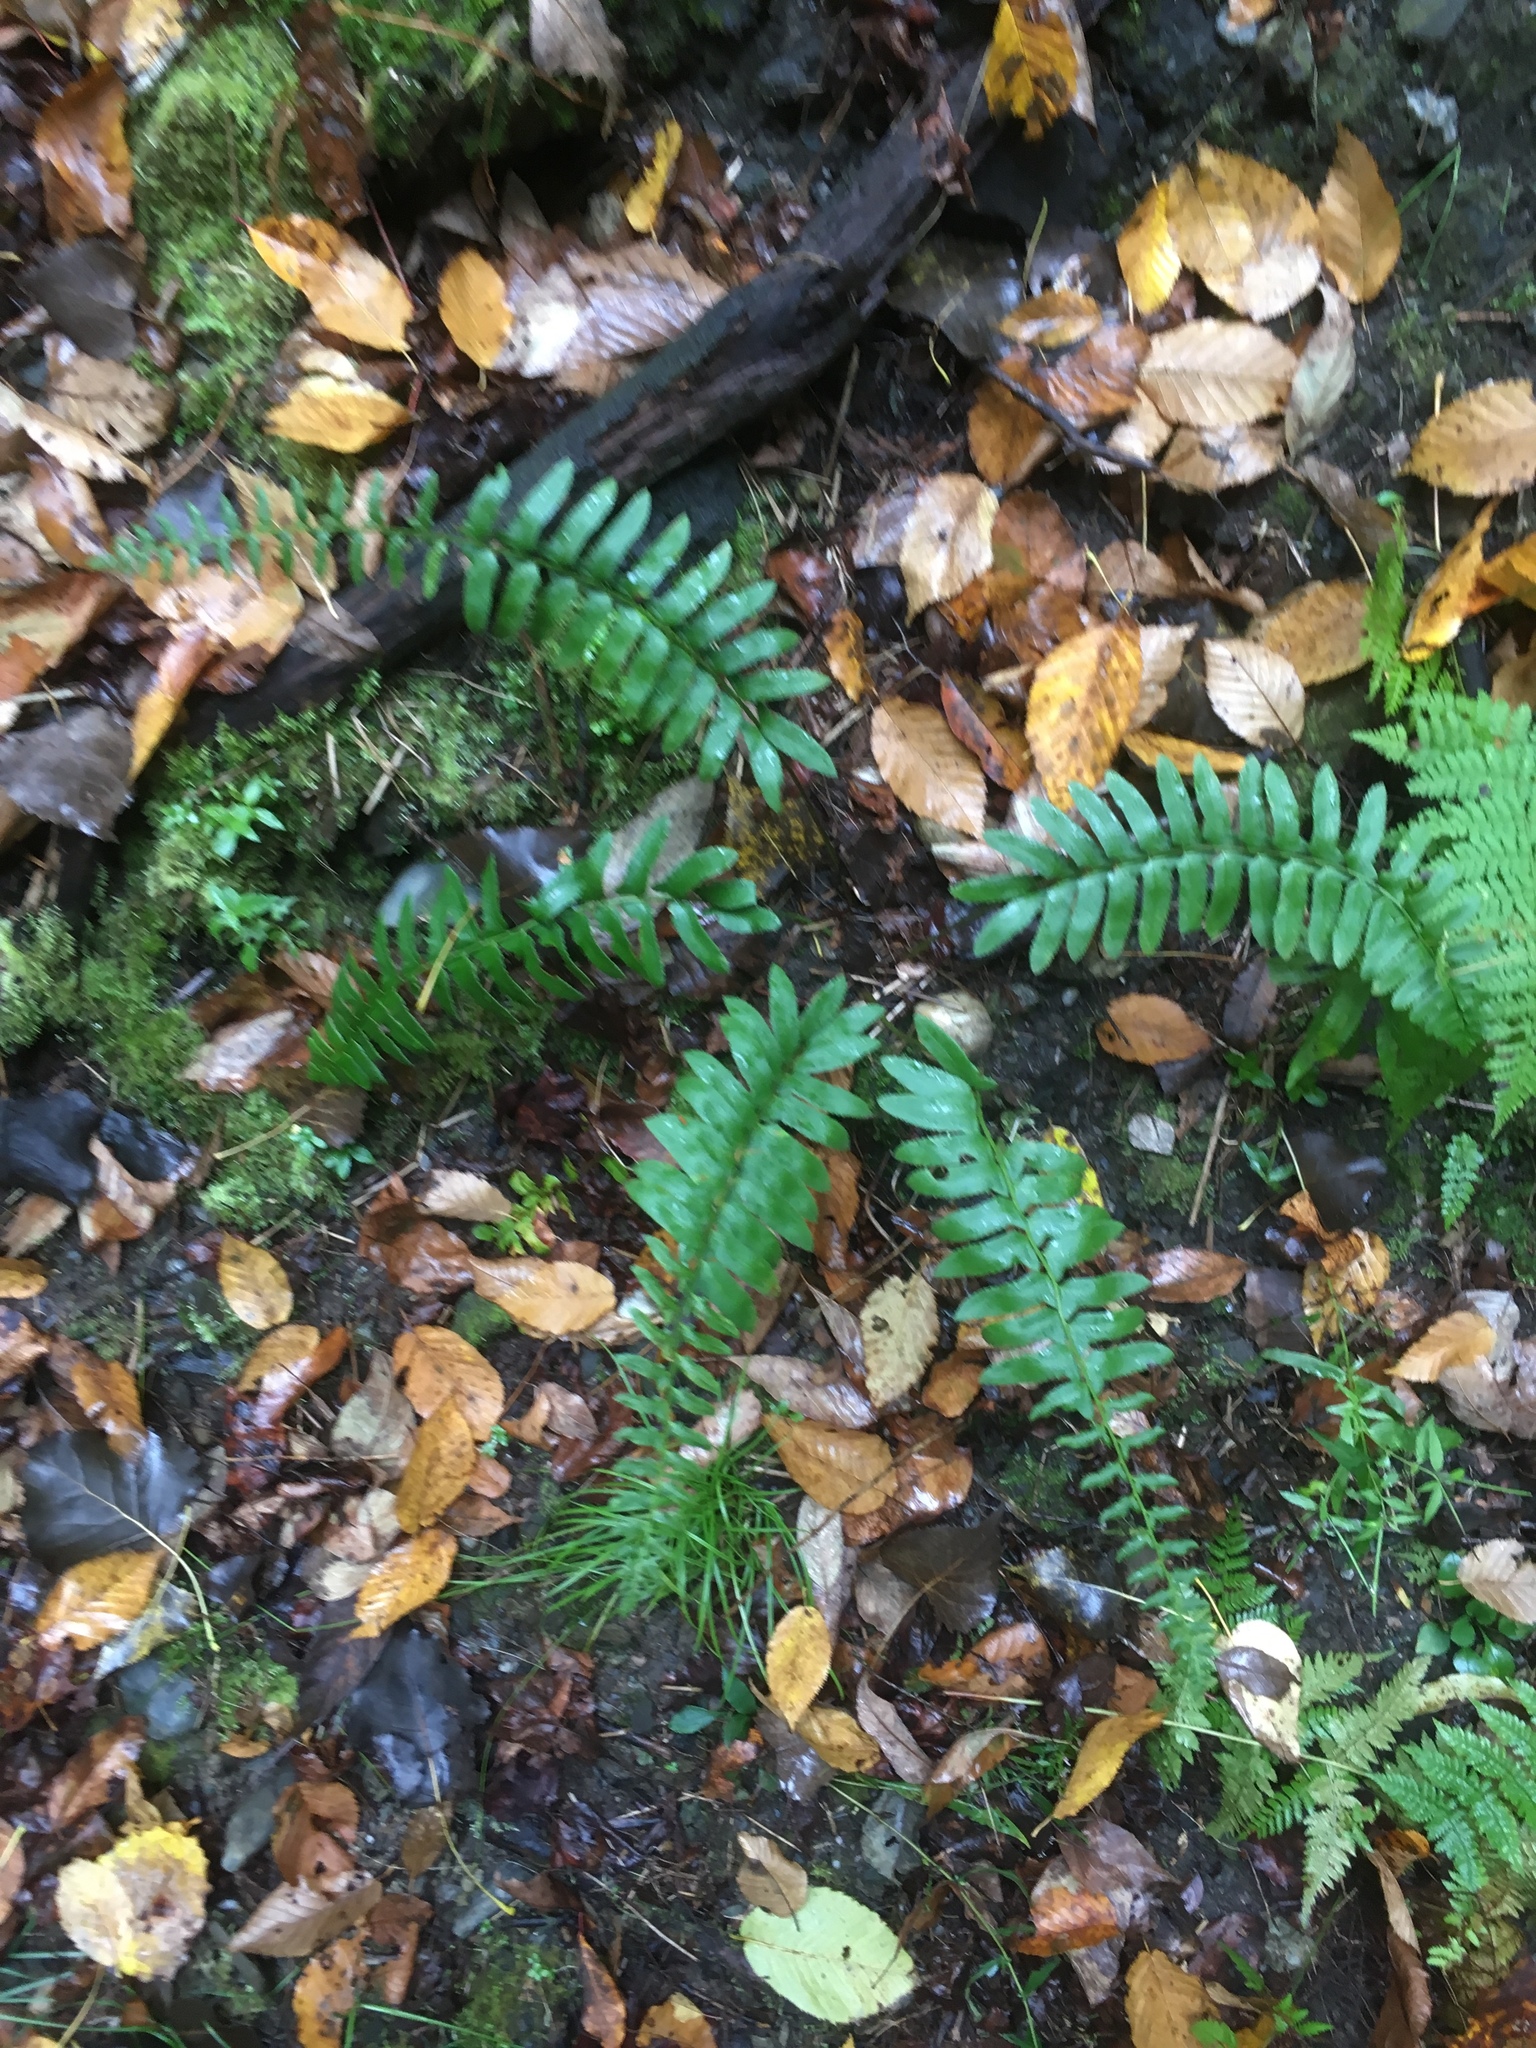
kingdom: Plantae
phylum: Tracheophyta
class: Polypodiopsida
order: Polypodiales
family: Dryopteridaceae
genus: Polystichum
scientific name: Polystichum acrostichoides
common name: Christmas fern
